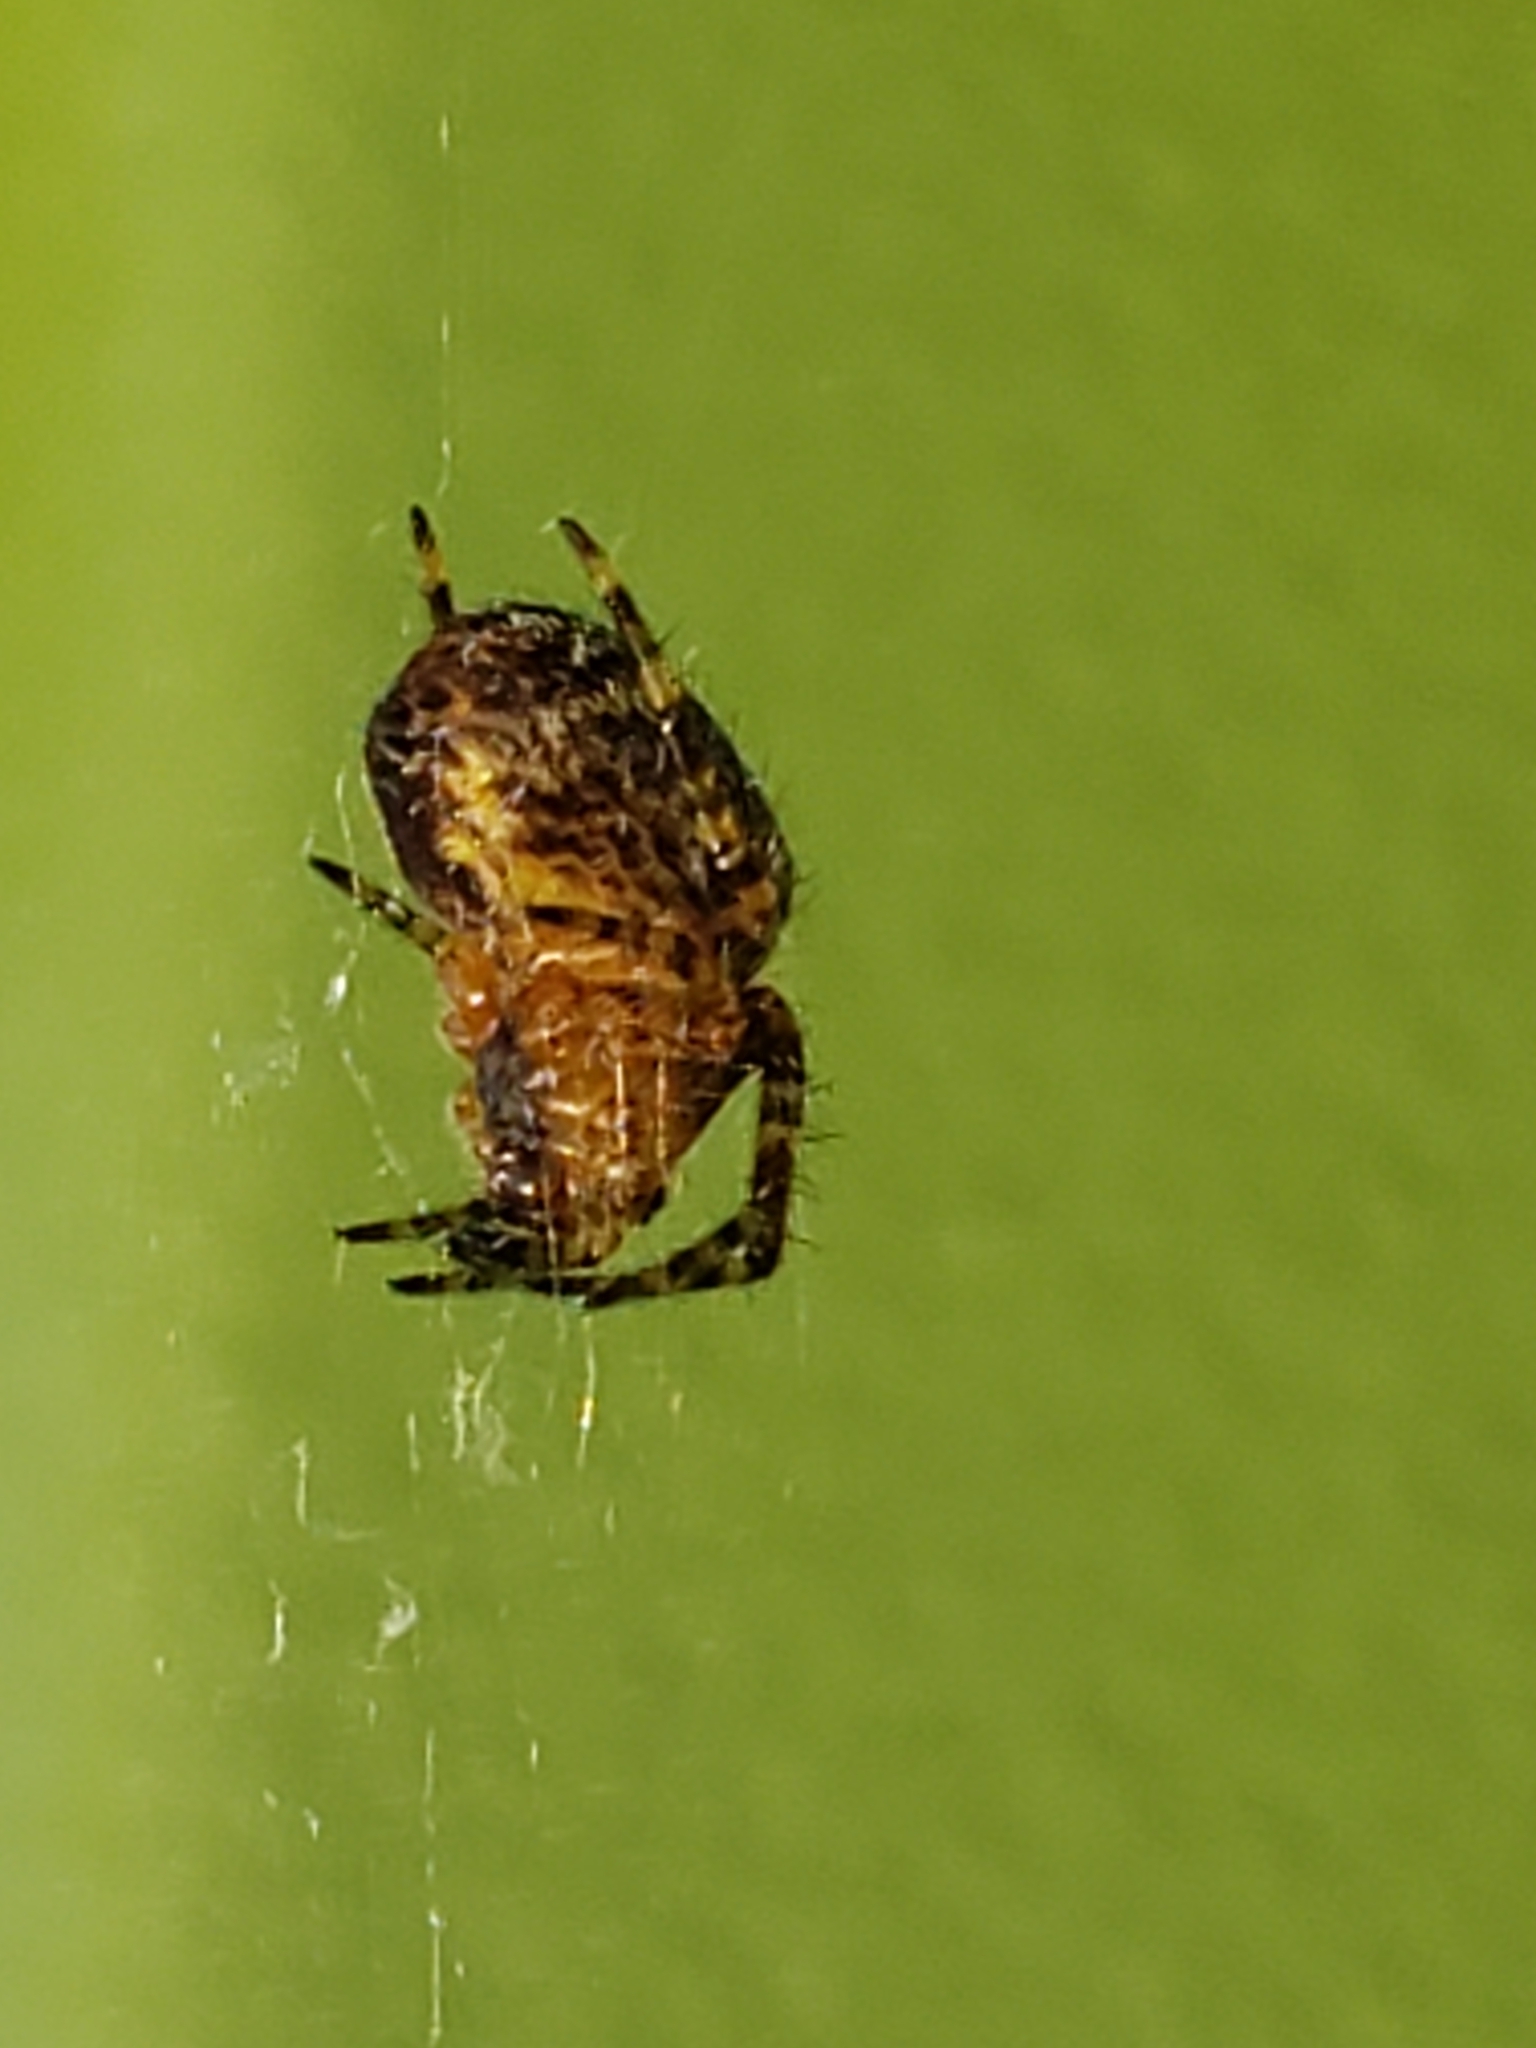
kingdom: Animalia
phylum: Arthropoda
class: Arachnida
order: Araneae
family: Araneidae
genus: Araneus
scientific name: Araneus diadematus
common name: Cross orbweaver
